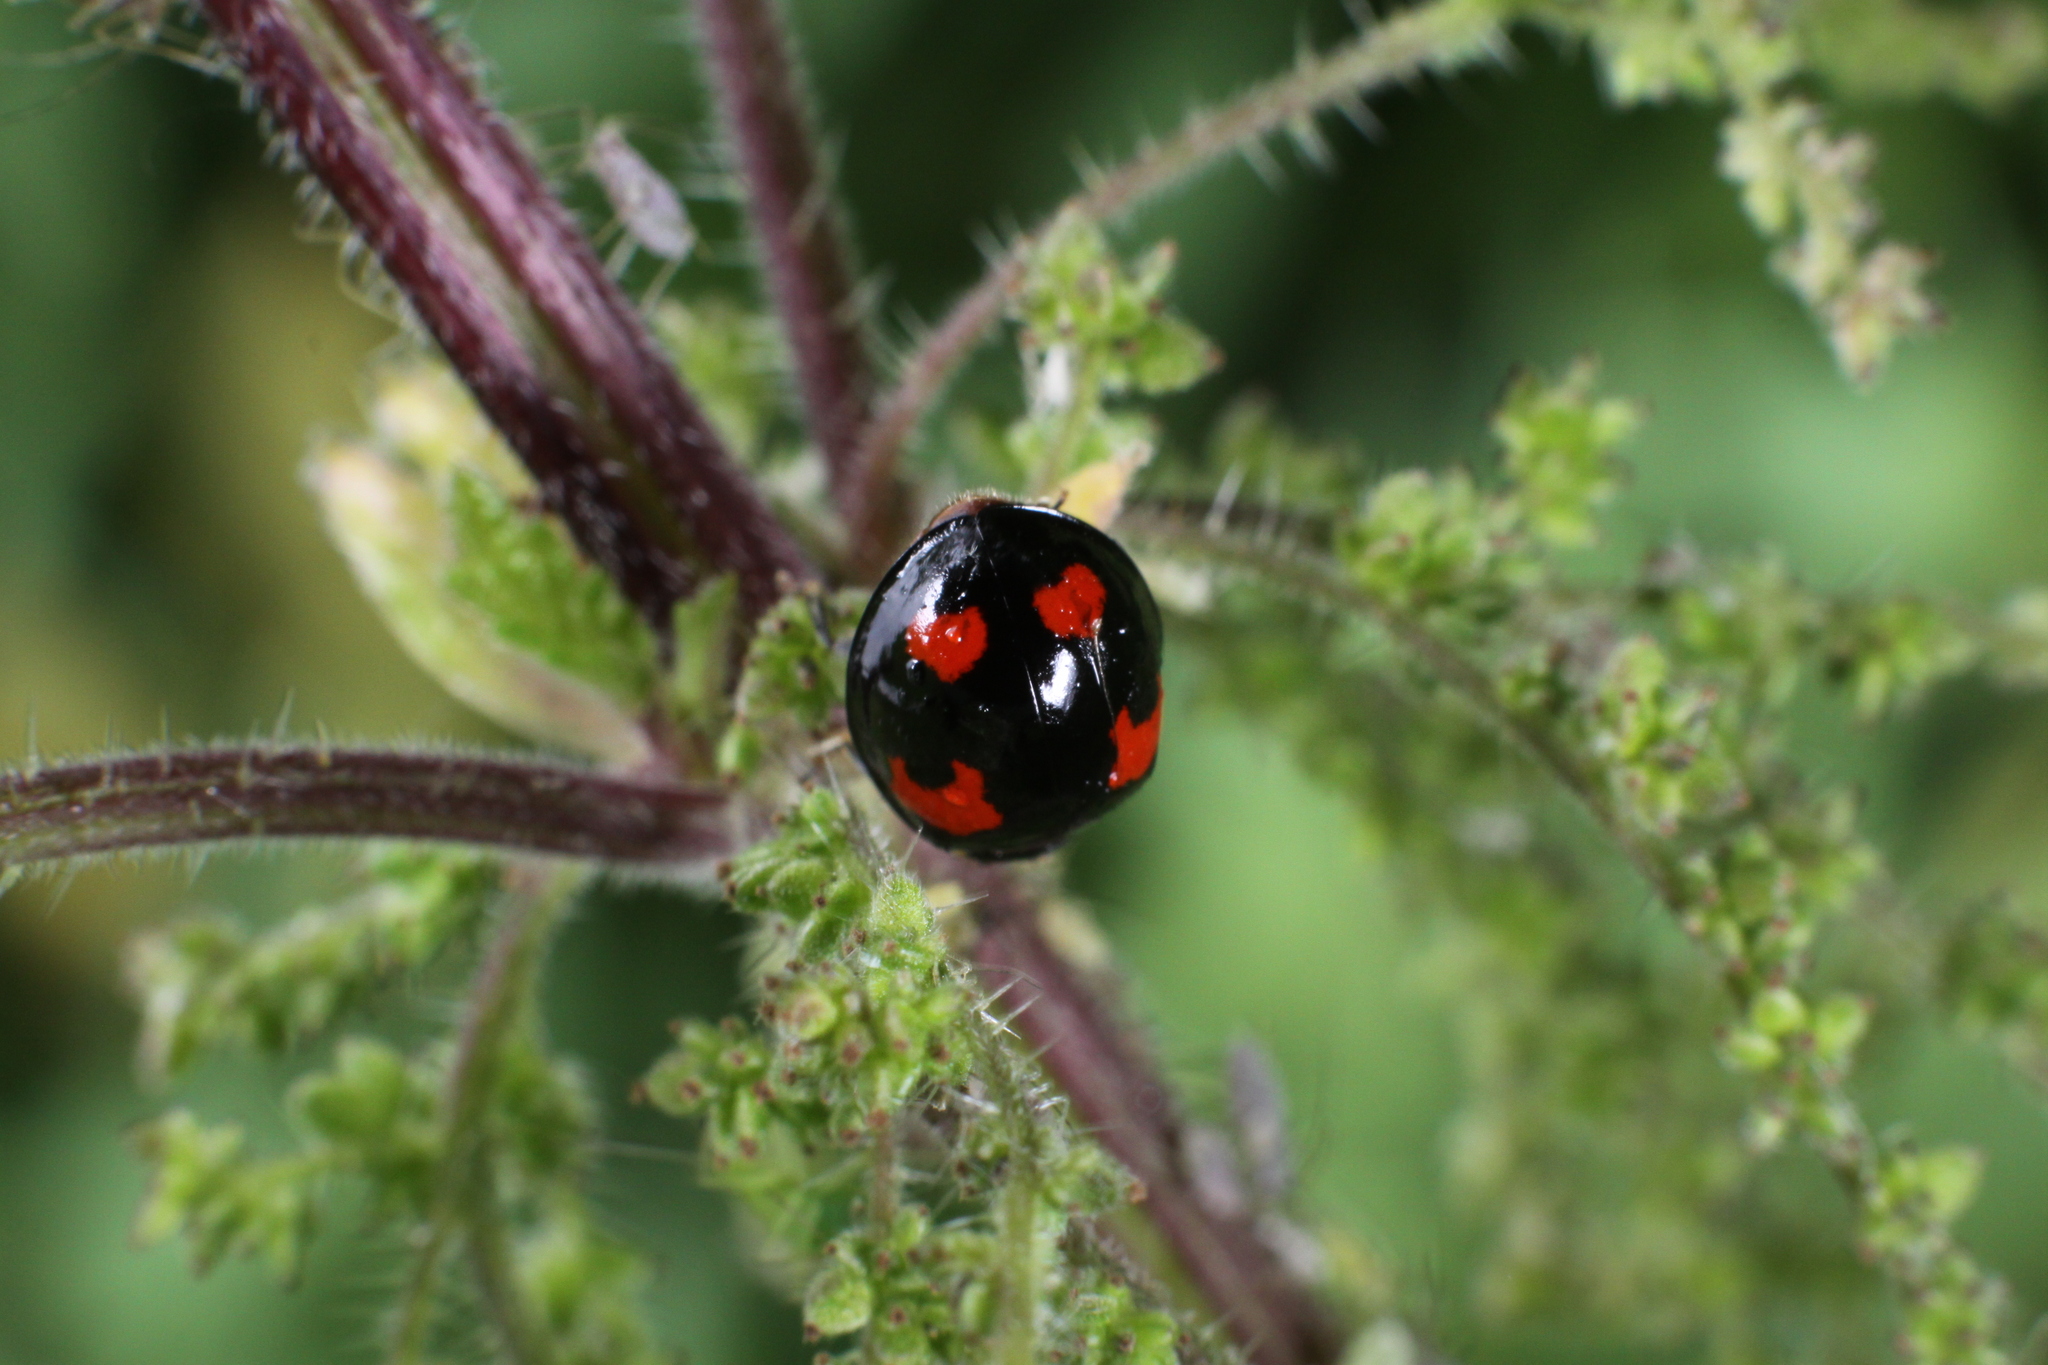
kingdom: Animalia
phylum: Arthropoda
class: Insecta
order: Coleoptera
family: Coccinellidae
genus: Harmonia
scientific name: Harmonia axyridis
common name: Harlequin ladybird
